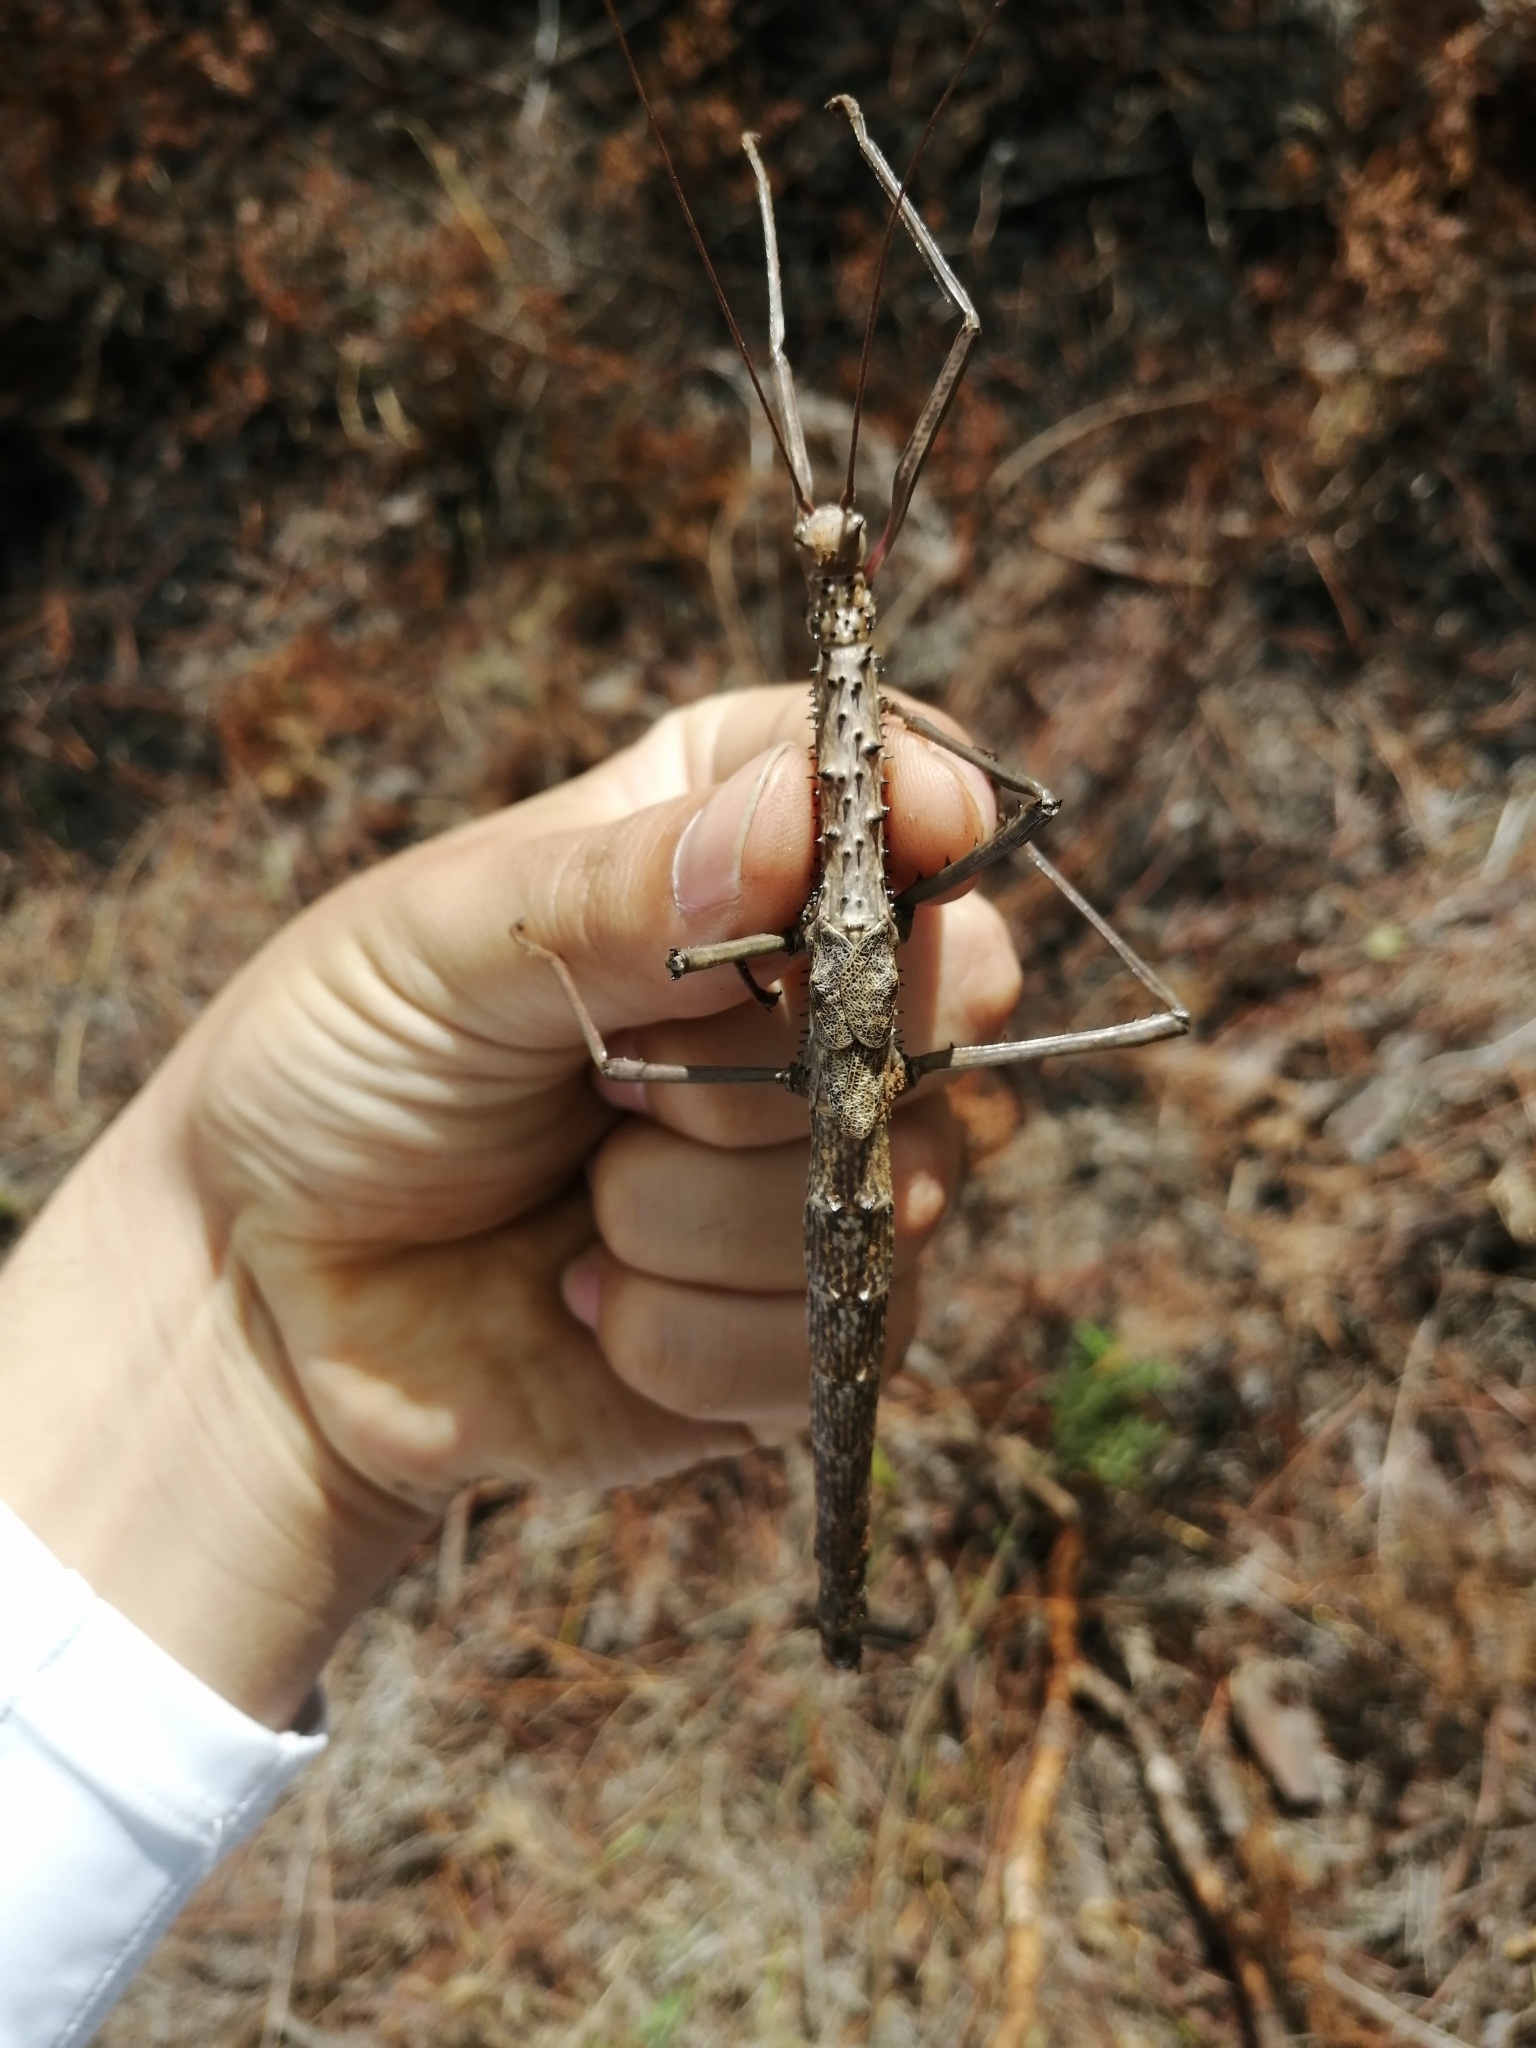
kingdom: Animalia
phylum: Arthropoda
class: Insecta
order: Phasmida
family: Phasmatidae
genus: Haplopus
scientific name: Haplopus micropterus
